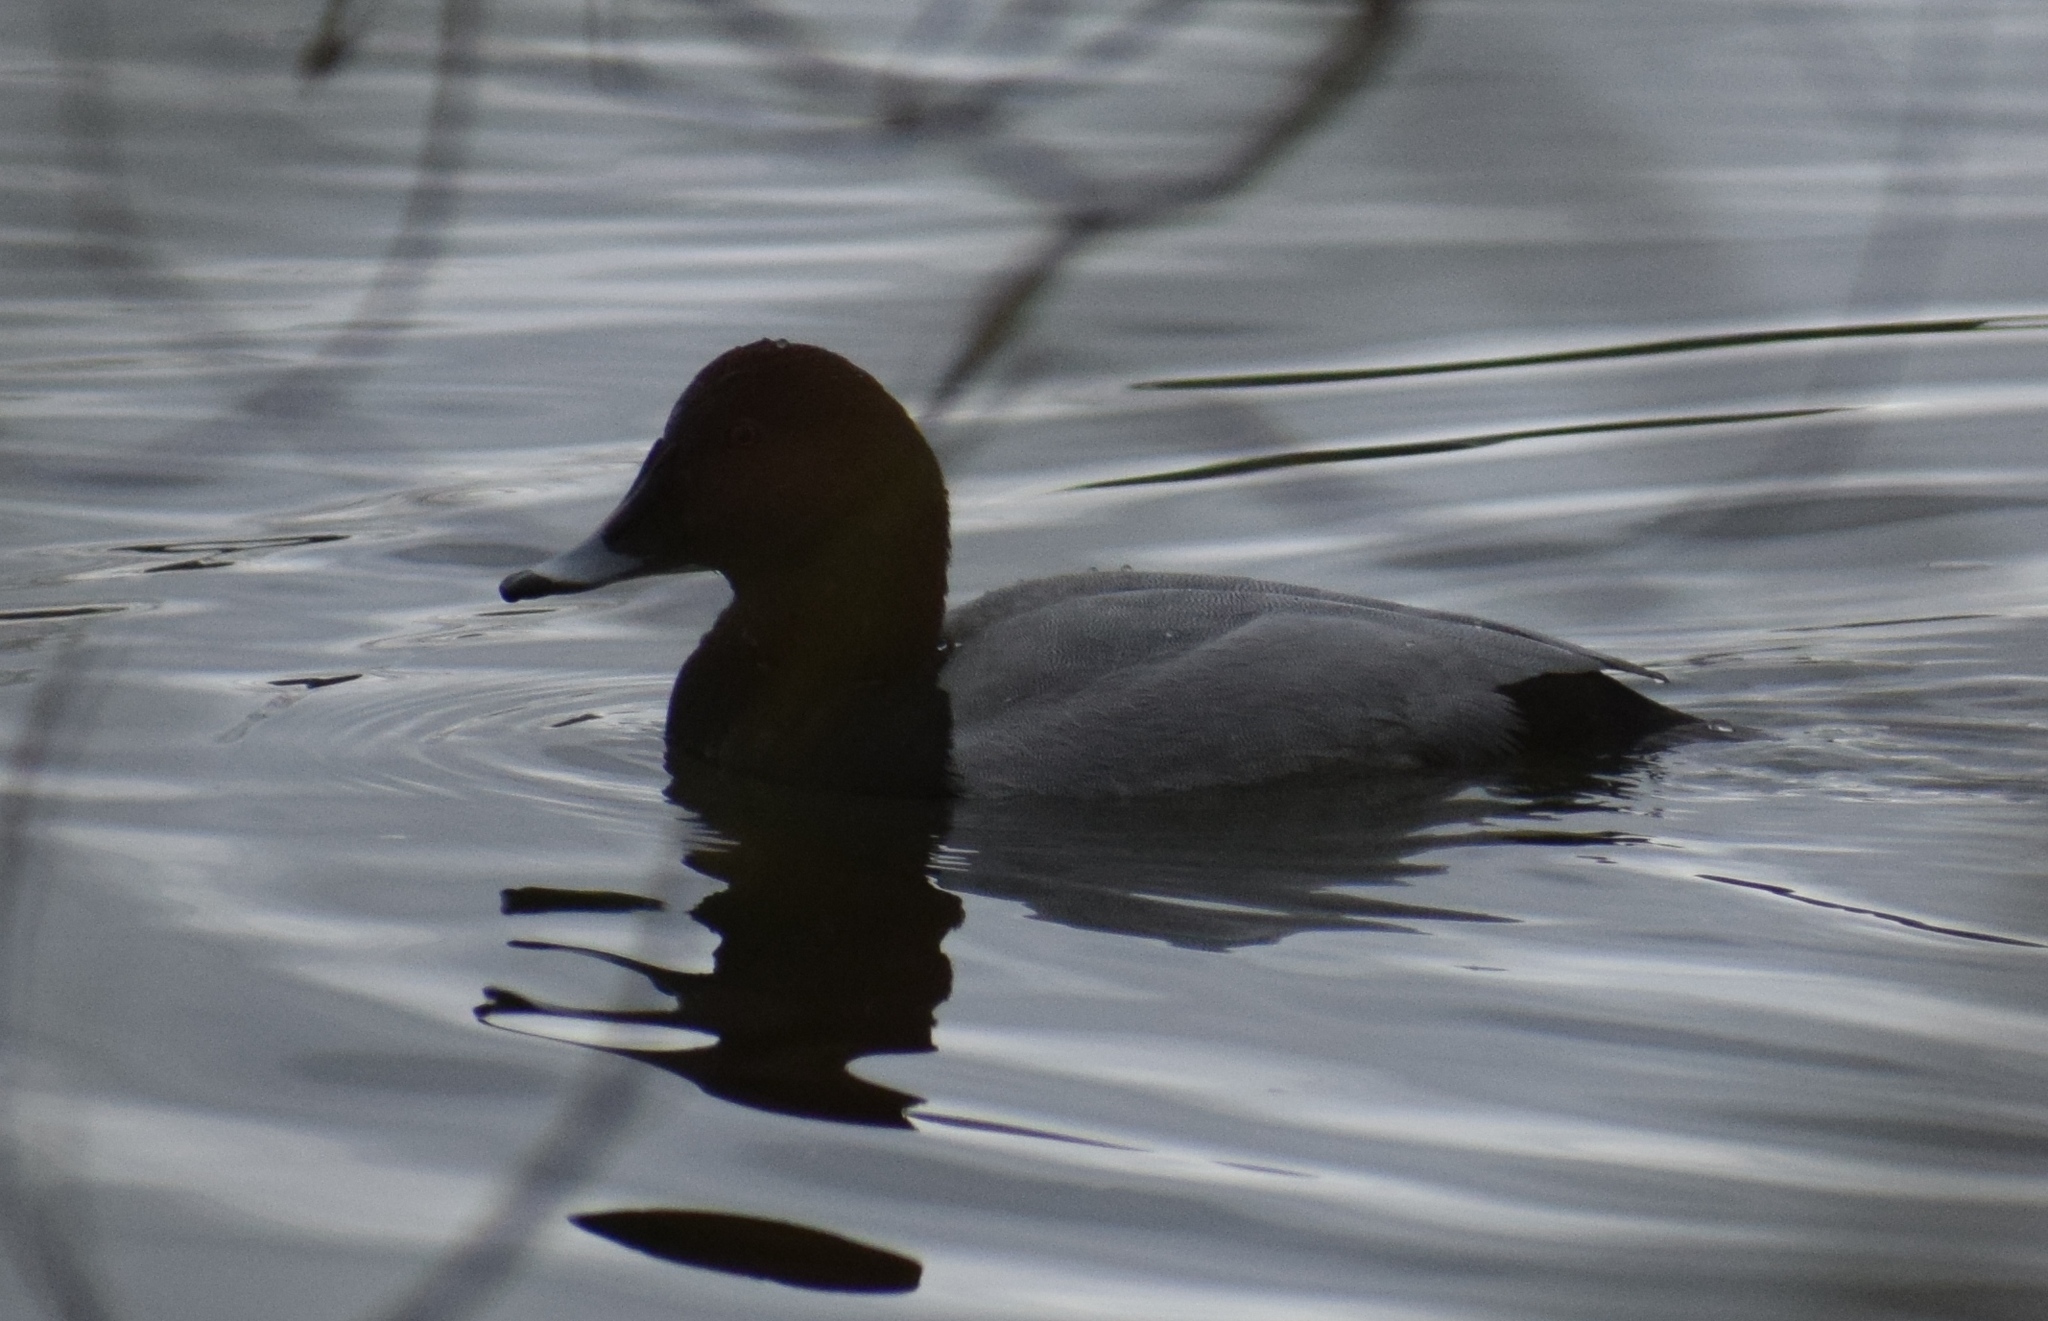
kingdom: Animalia
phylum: Chordata
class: Aves
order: Anseriformes
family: Anatidae
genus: Aythya
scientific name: Aythya ferina
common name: Common pochard
